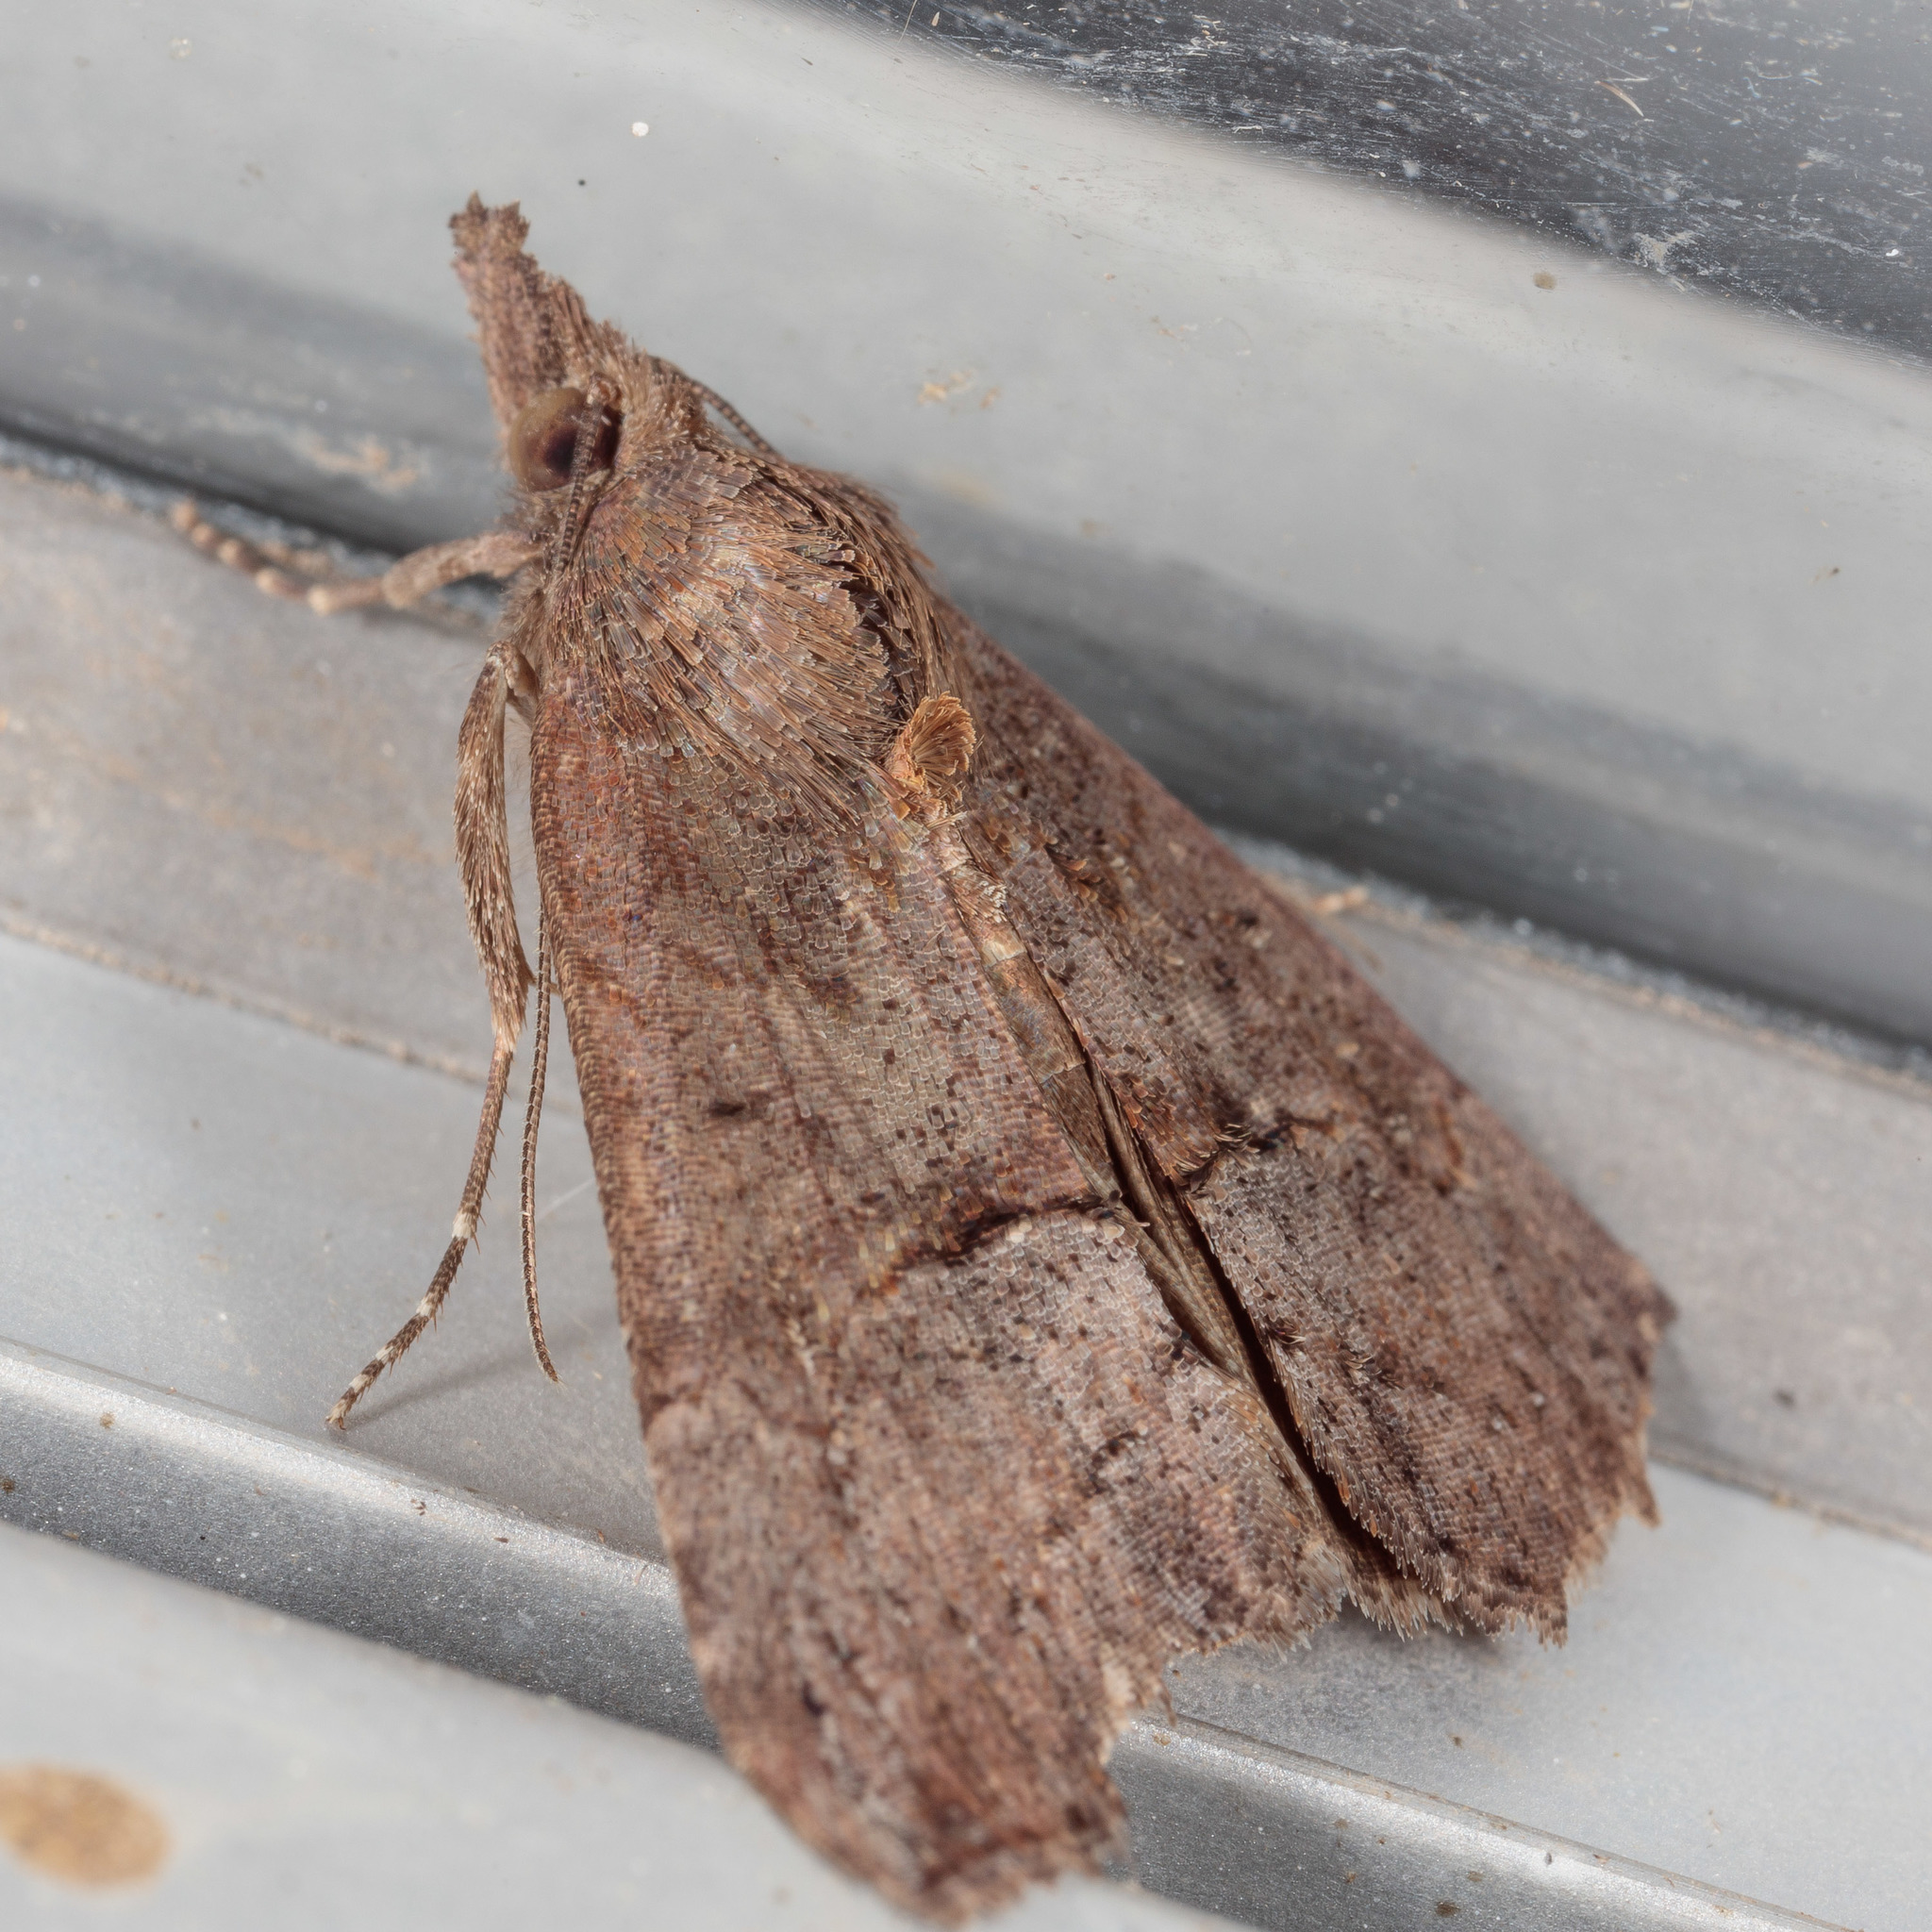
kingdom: Animalia
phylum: Arthropoda
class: Insecta
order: Lepidoptera
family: Erebidae
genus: Hypena
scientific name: Hypena scabra
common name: Green cloverworm
